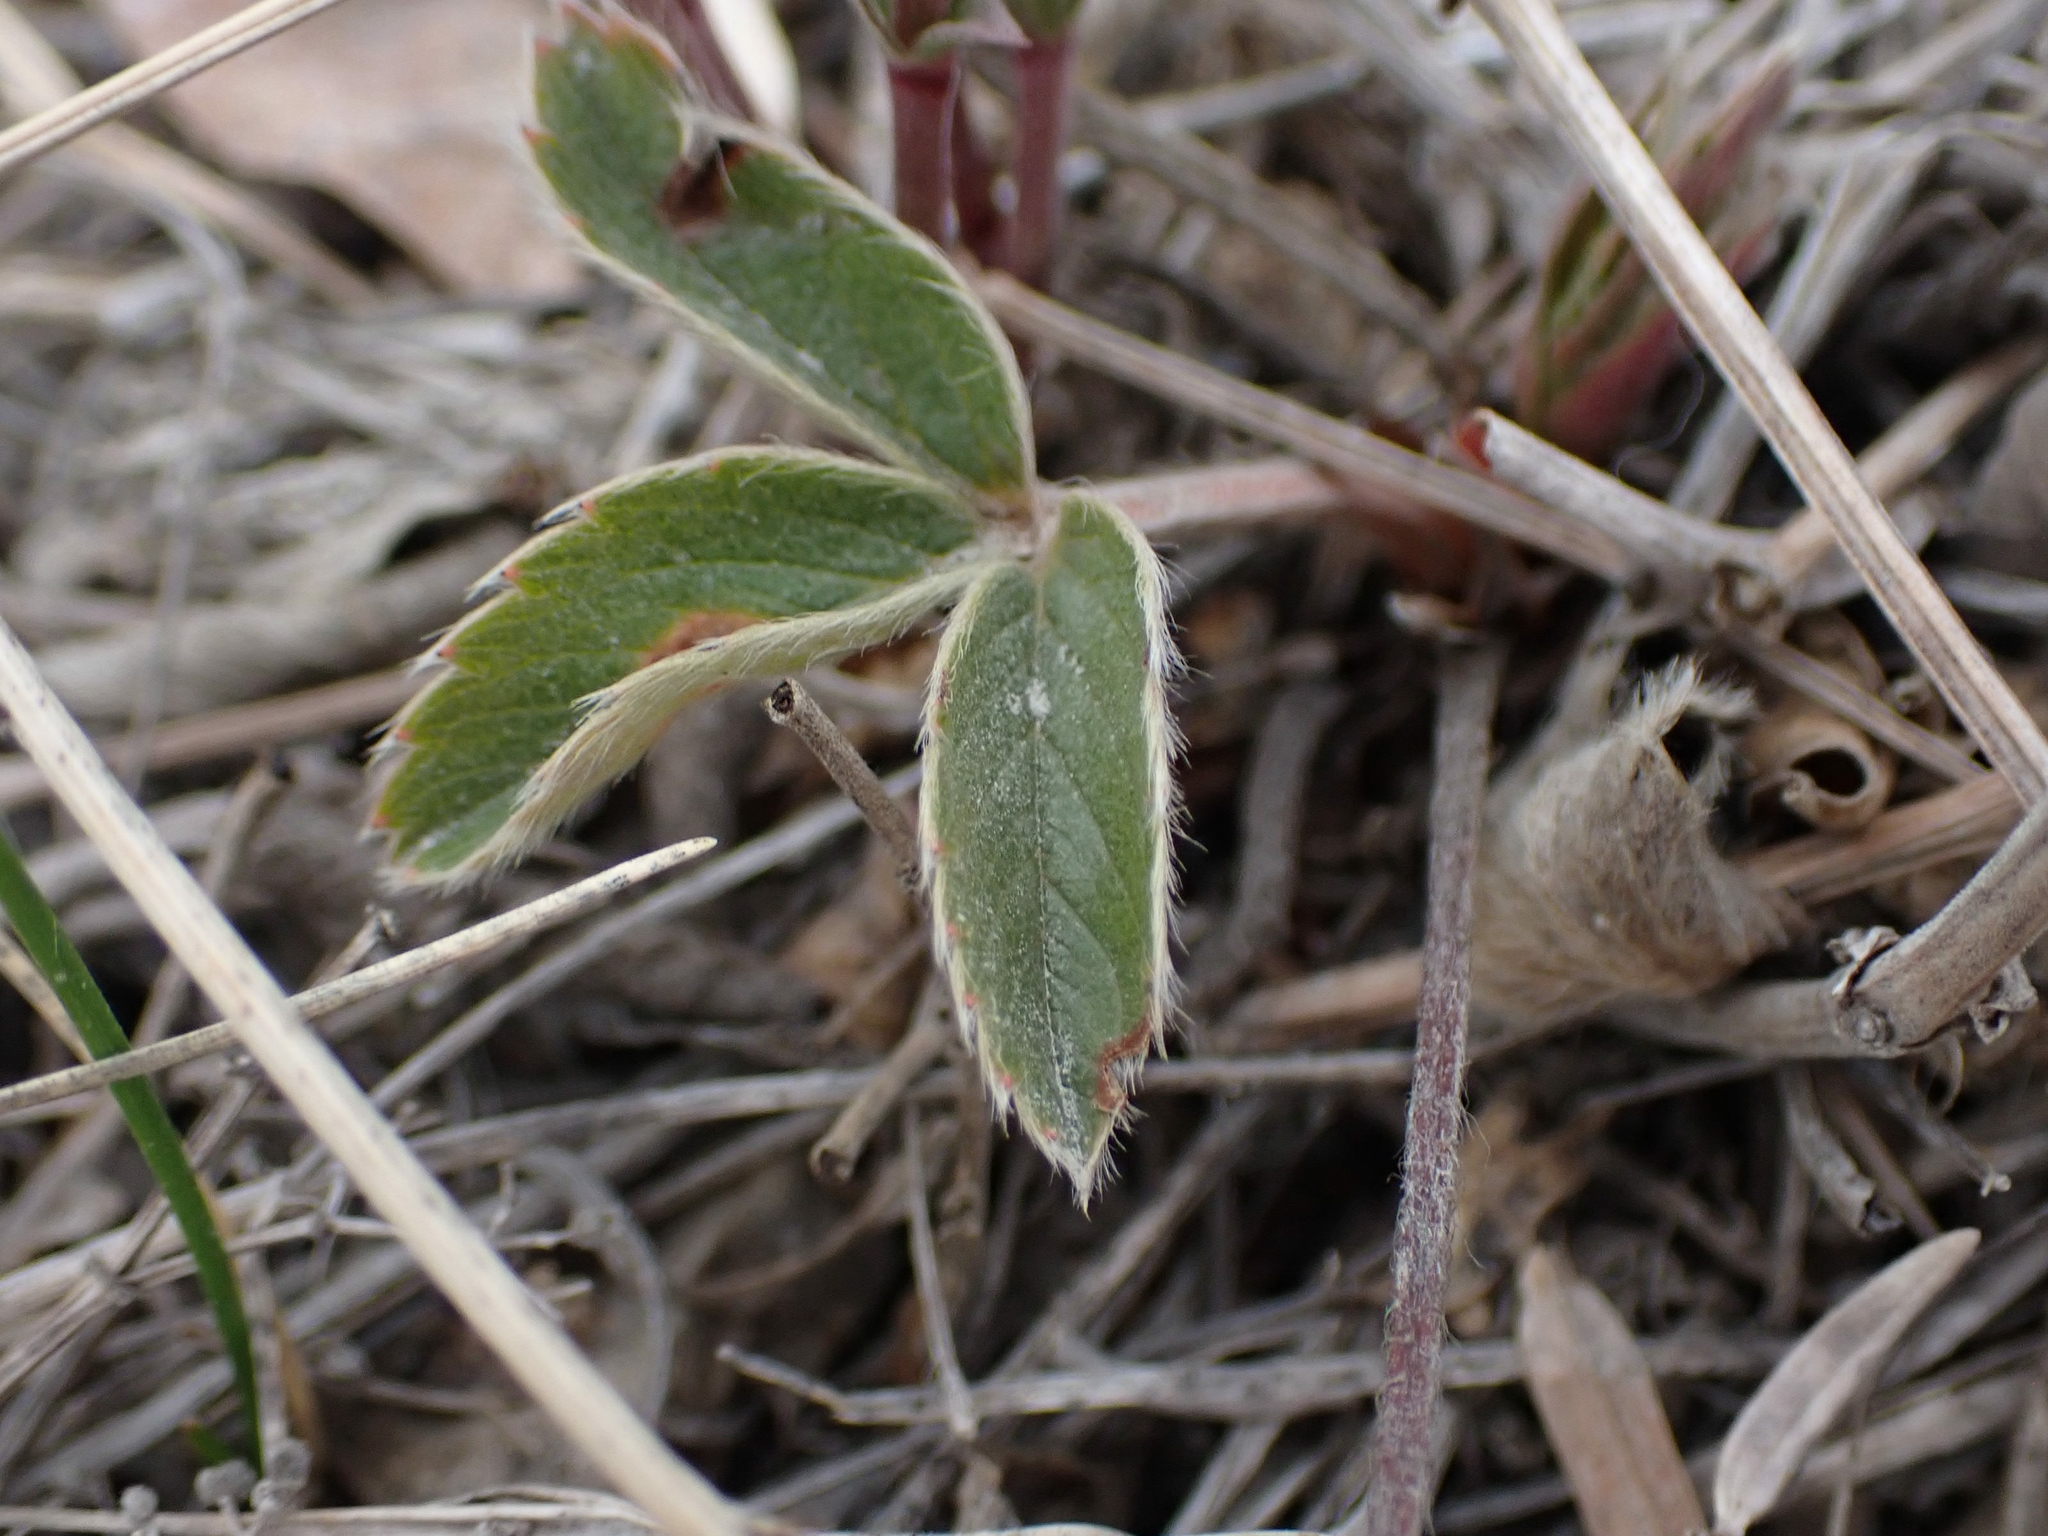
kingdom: Plantae
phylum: Tracheophyta
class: Magnoliopsida
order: Rosales
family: Rosaceae
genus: Fragaria
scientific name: Fragaria virginiana
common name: Thickleaved wild strawberry
